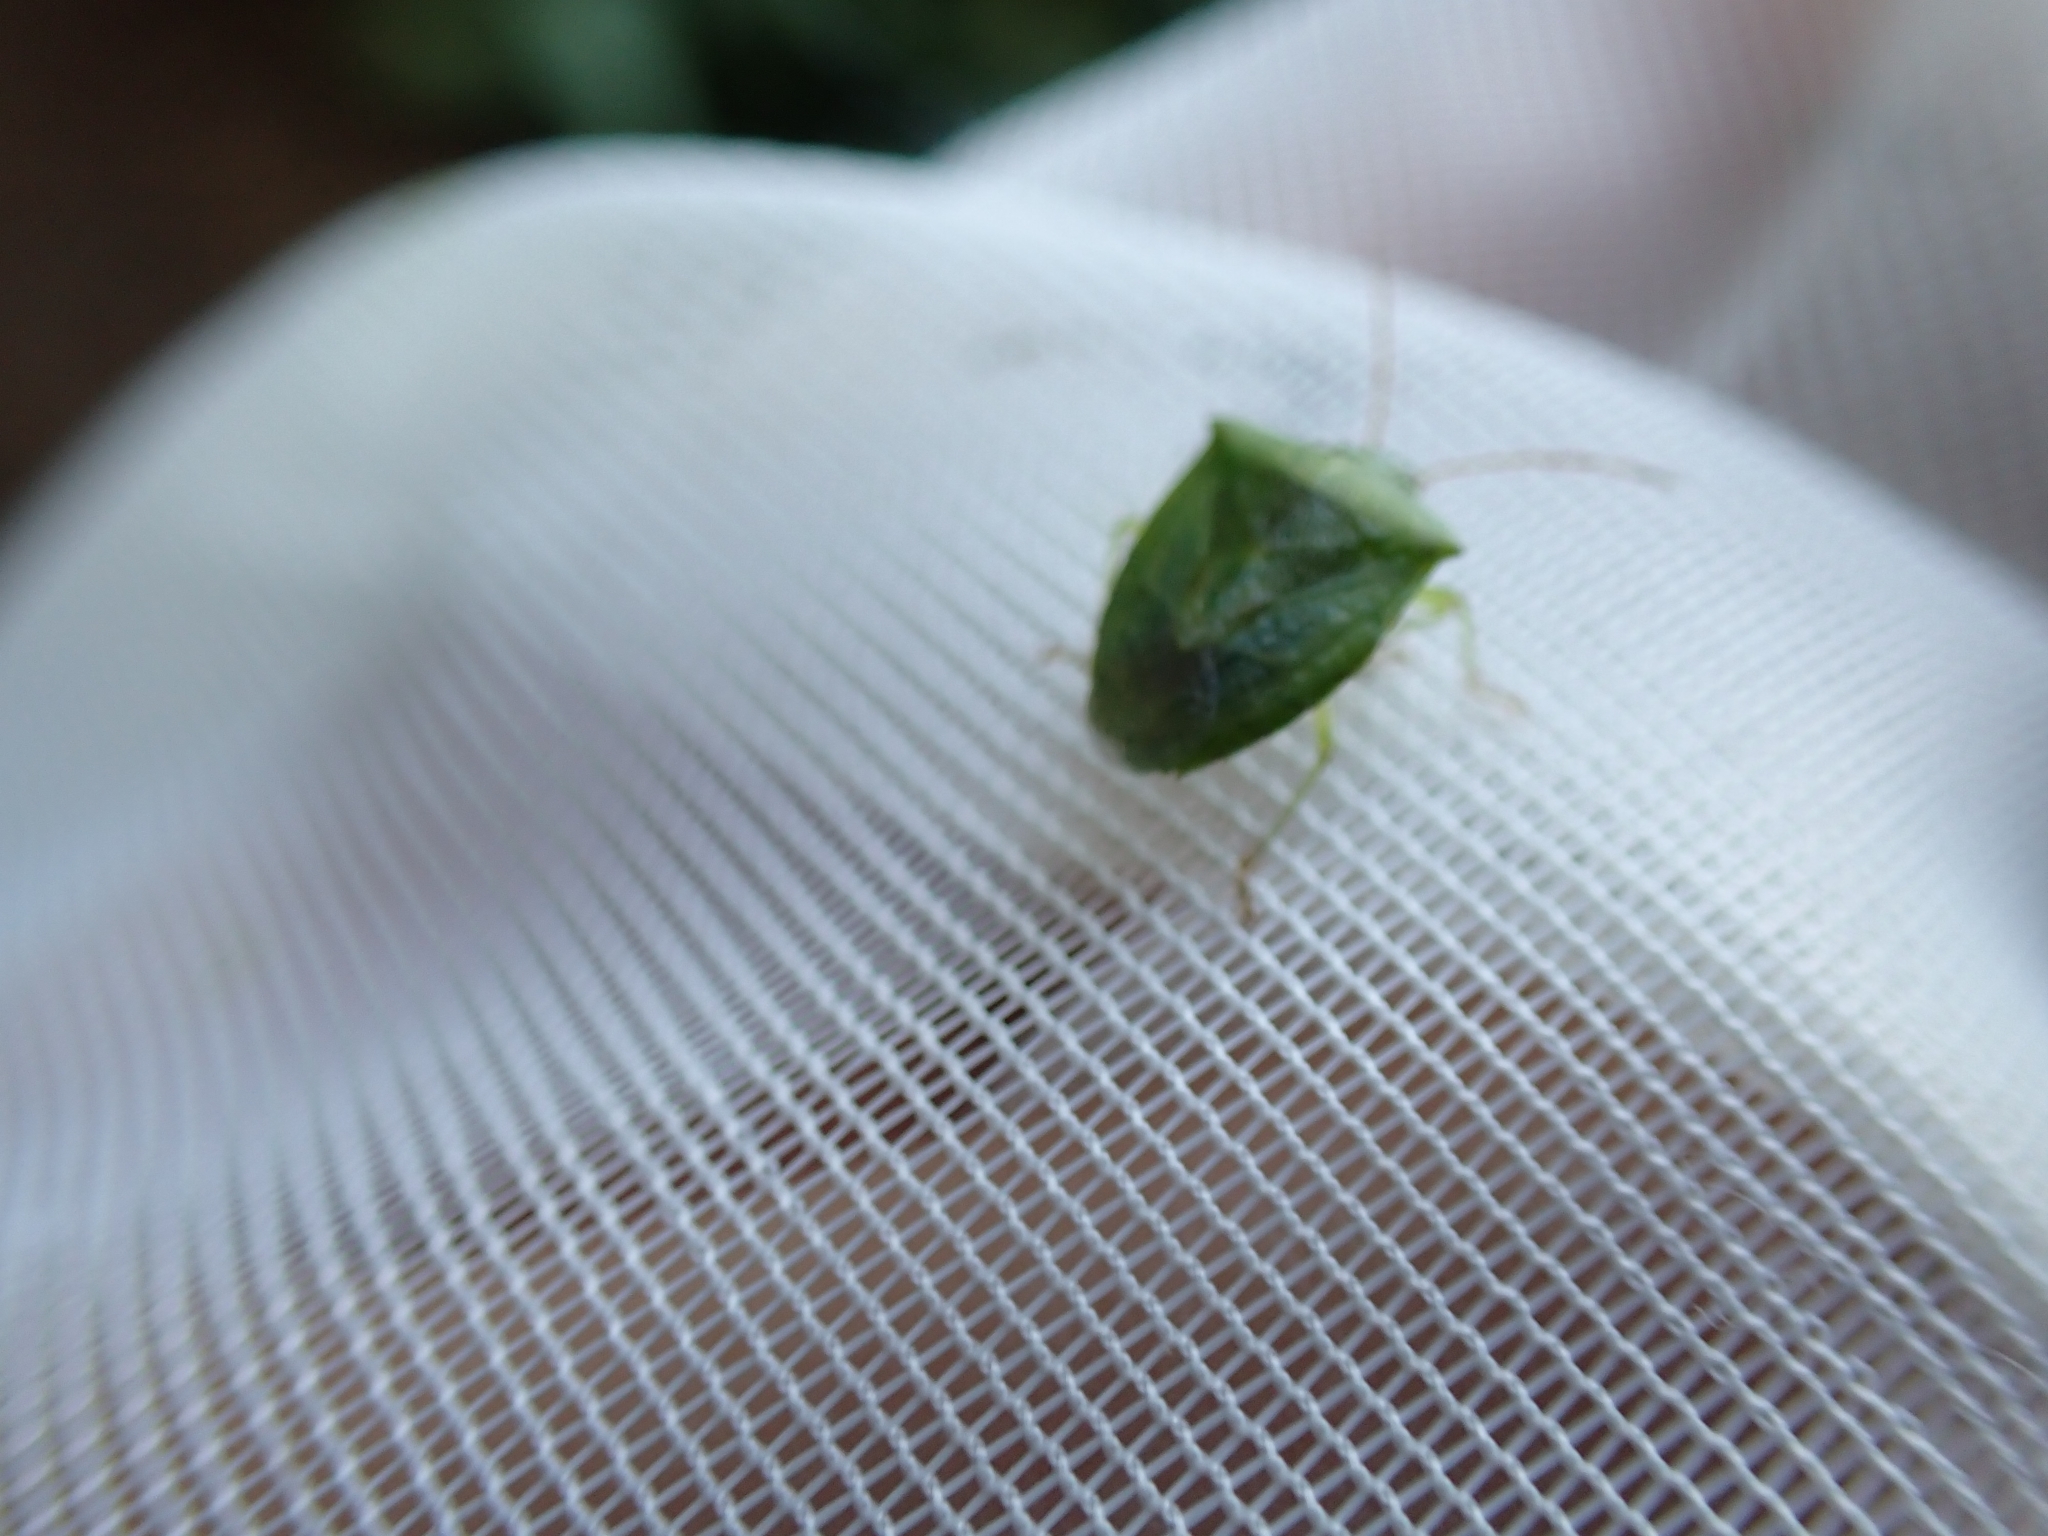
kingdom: Animalia
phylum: Arthropoda
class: Insecta
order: Hemiptera
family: Pentatomidae
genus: Cuspicona
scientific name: Cuspicona simplex
